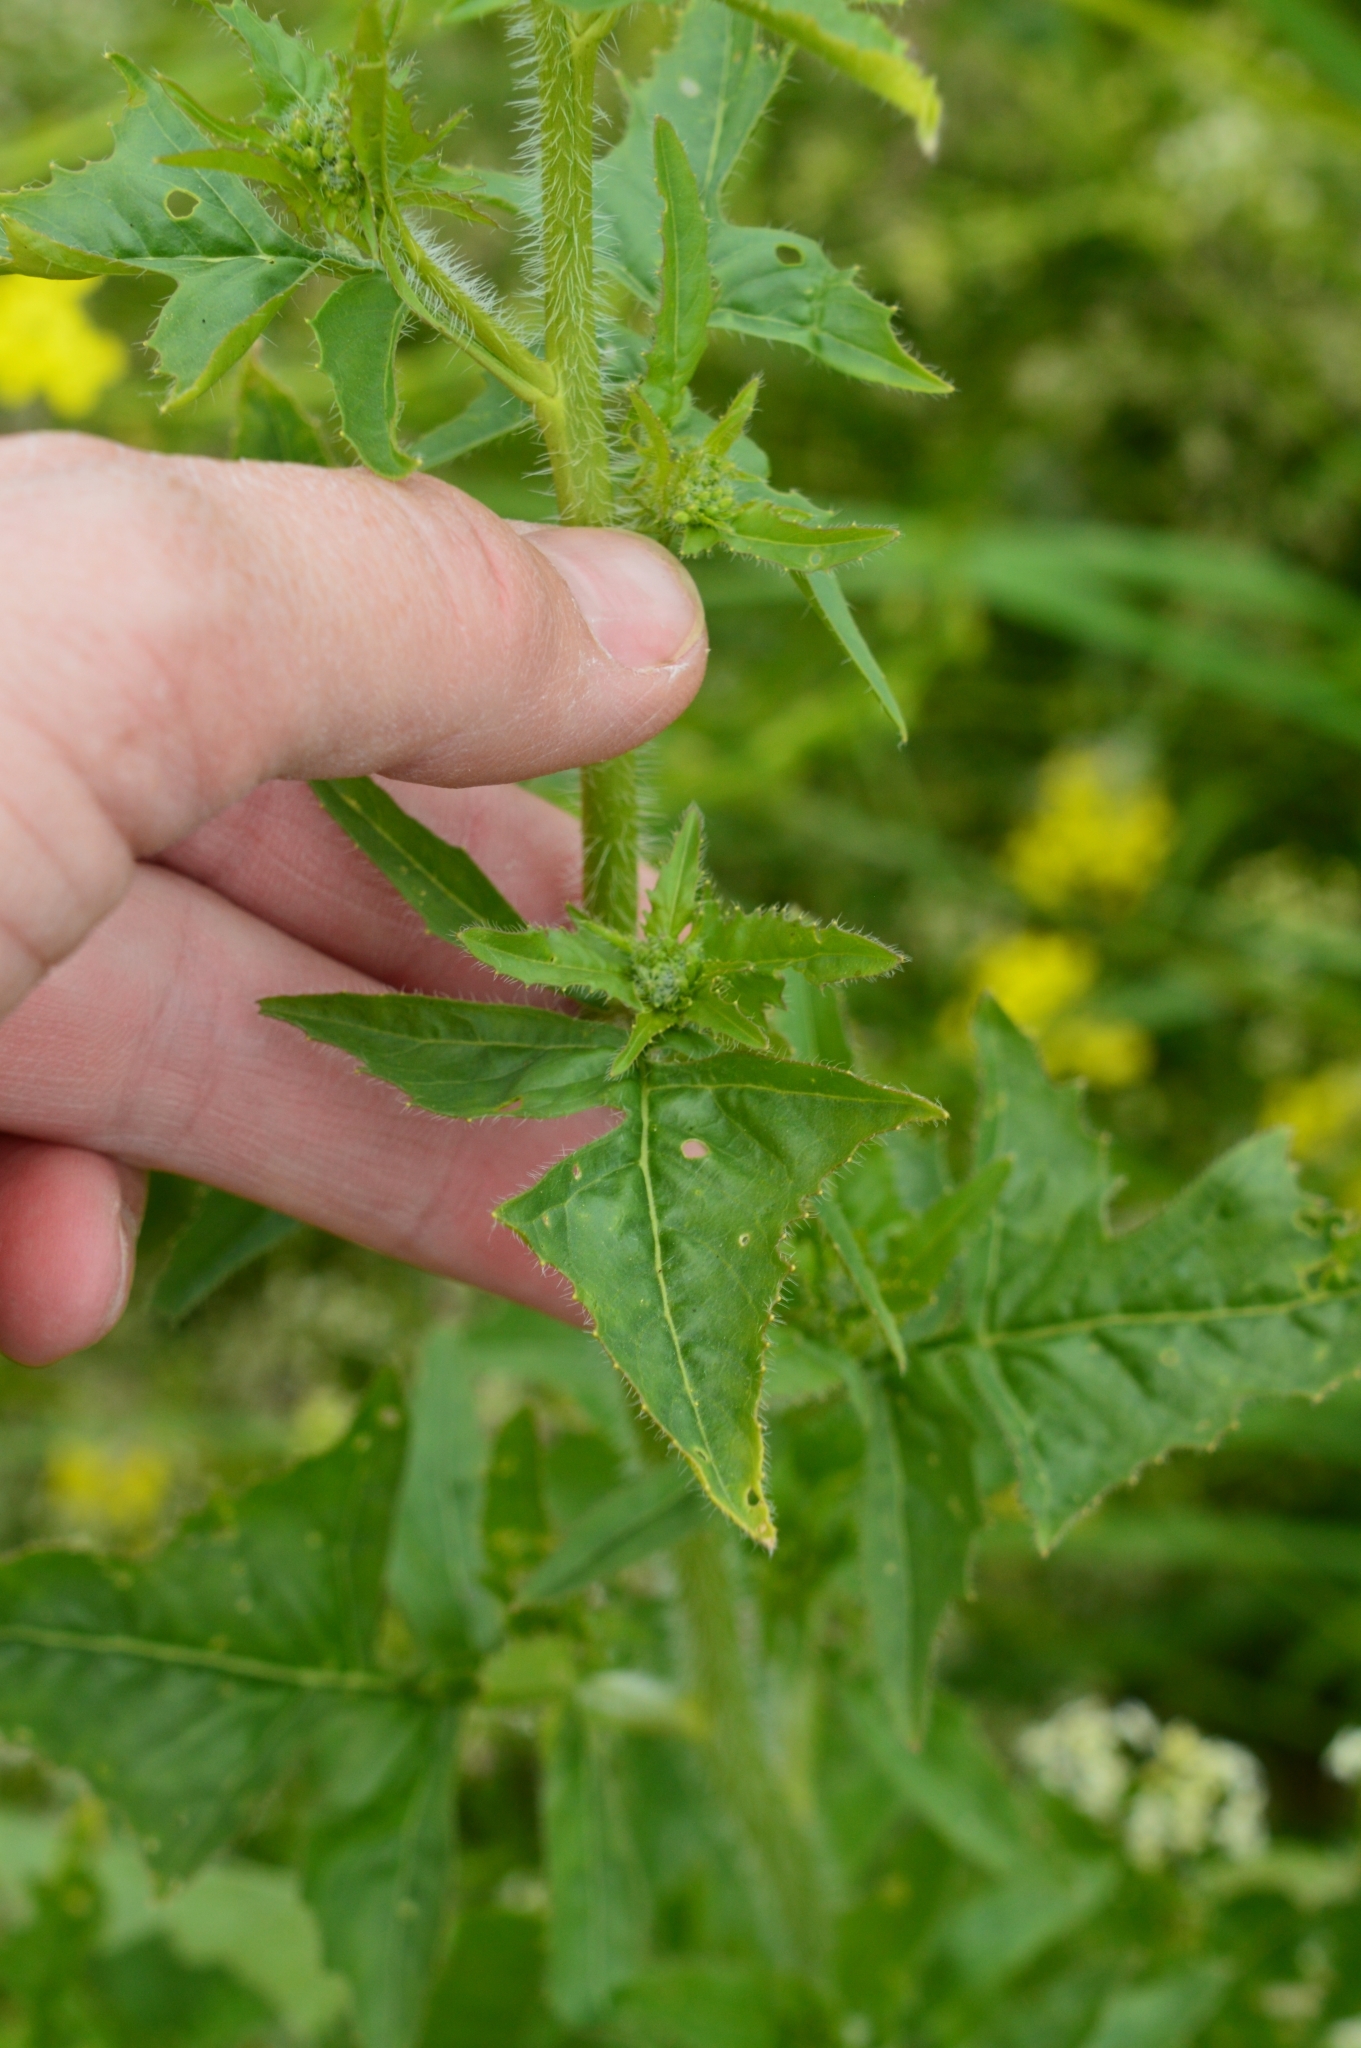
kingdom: Plantae
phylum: Tracheophyta
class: Magnoliopsida
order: Brassicales
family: Brassicaceae
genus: Sisymbrium
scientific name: Sisymbrium loeselii
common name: False london-rocket
